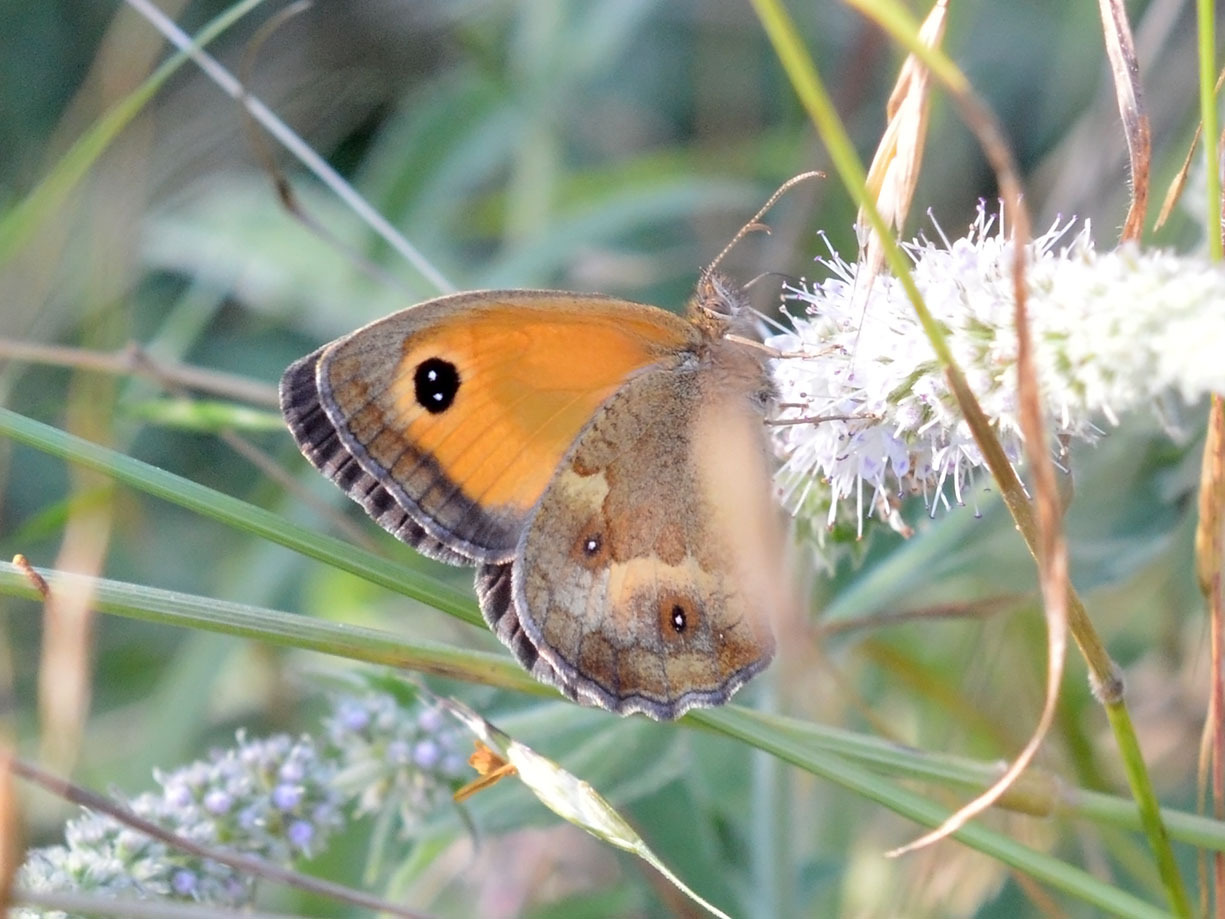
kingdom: Animalia
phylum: Arthropoda
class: Insecta
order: Lepidoptera
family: Nymphalidae
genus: Pyronia
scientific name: Pyronia tithonus
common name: Gatekeeper
